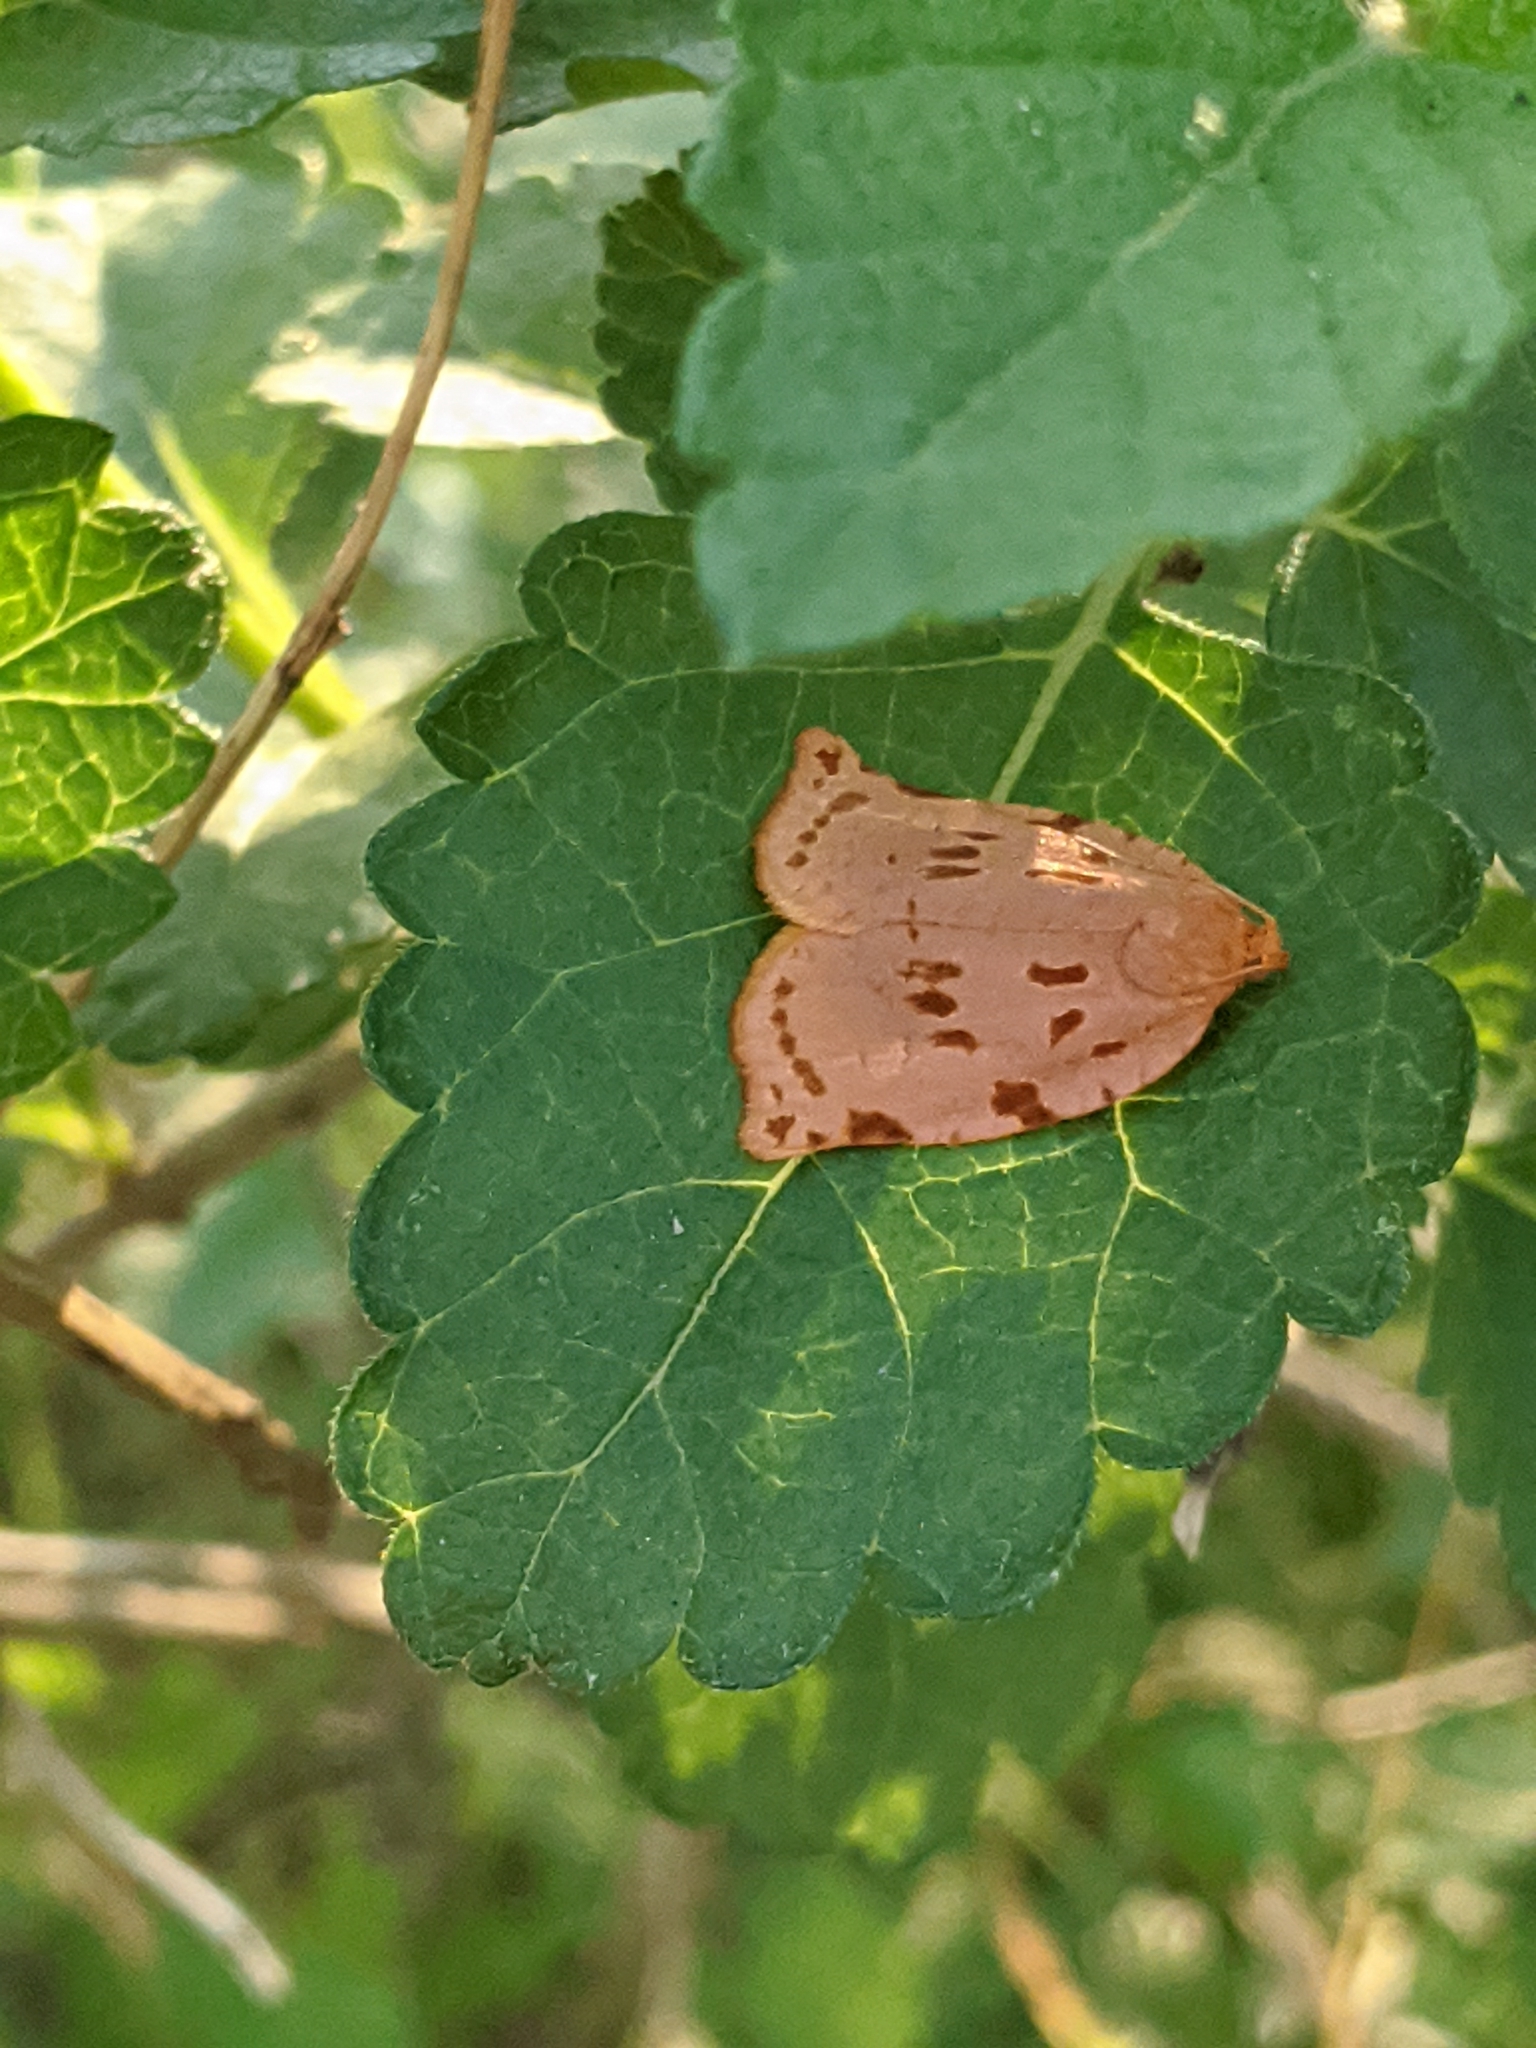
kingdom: Animalia
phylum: Arthropoda
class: Insecta
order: Lepidoptera
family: Tortricidae
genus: Archips
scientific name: Archips rileyana
